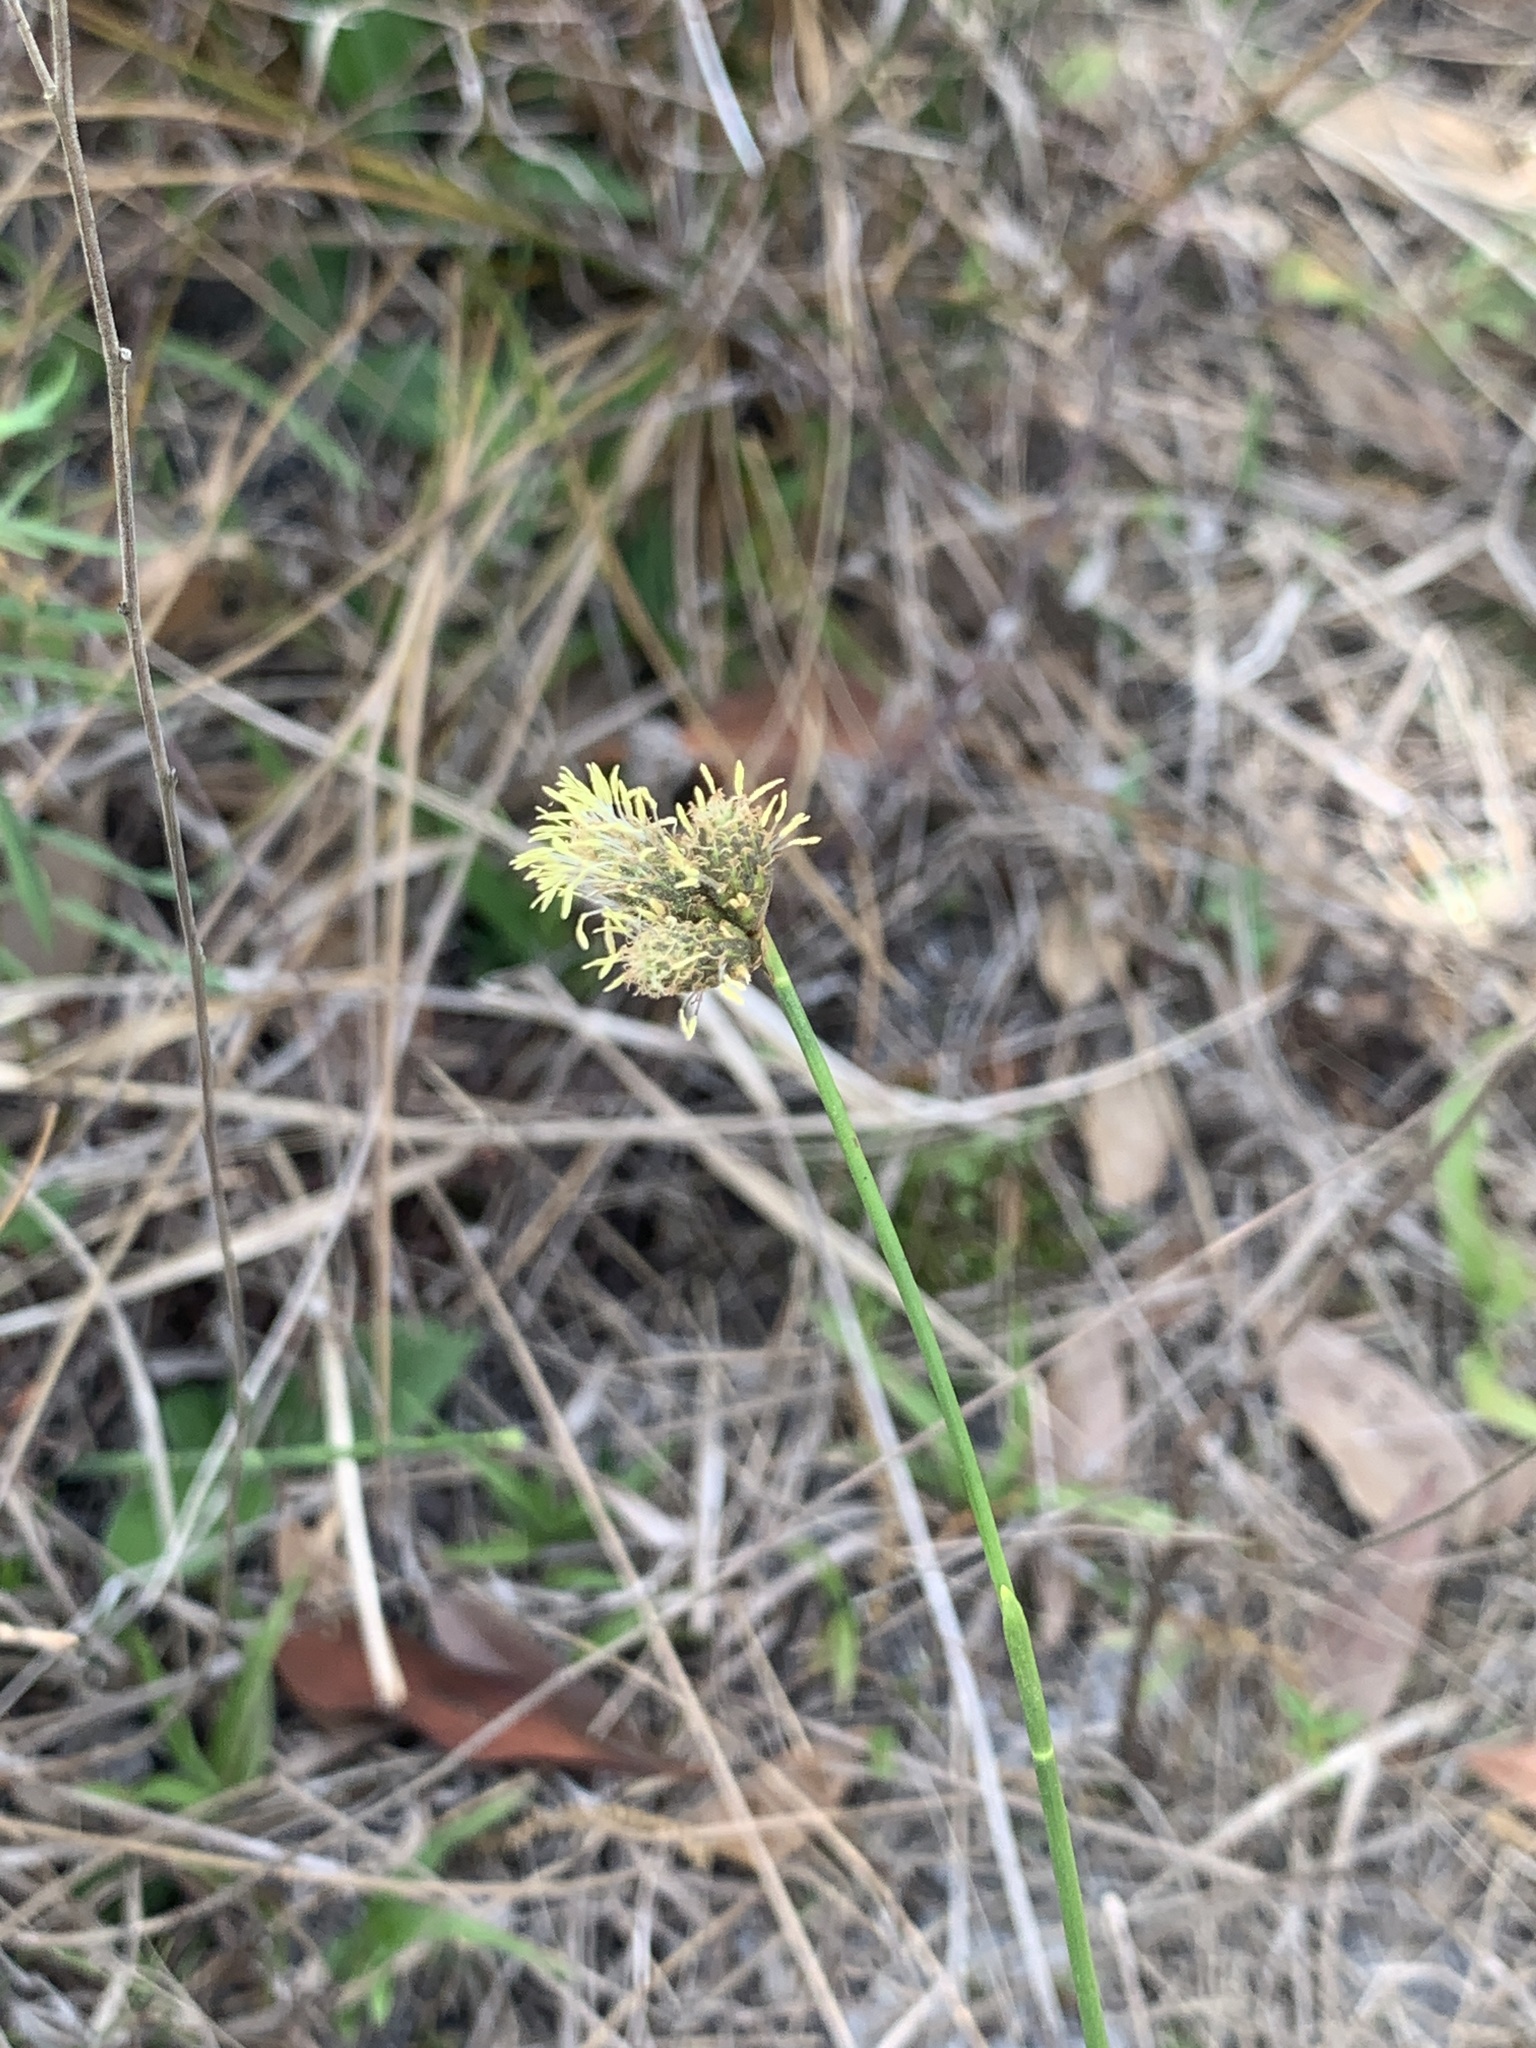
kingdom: Plantae
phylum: Tracheophyta
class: Liliopsida
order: Poales
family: Cyperaceae
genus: Fuirena
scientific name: Fuirena scirpoidea
